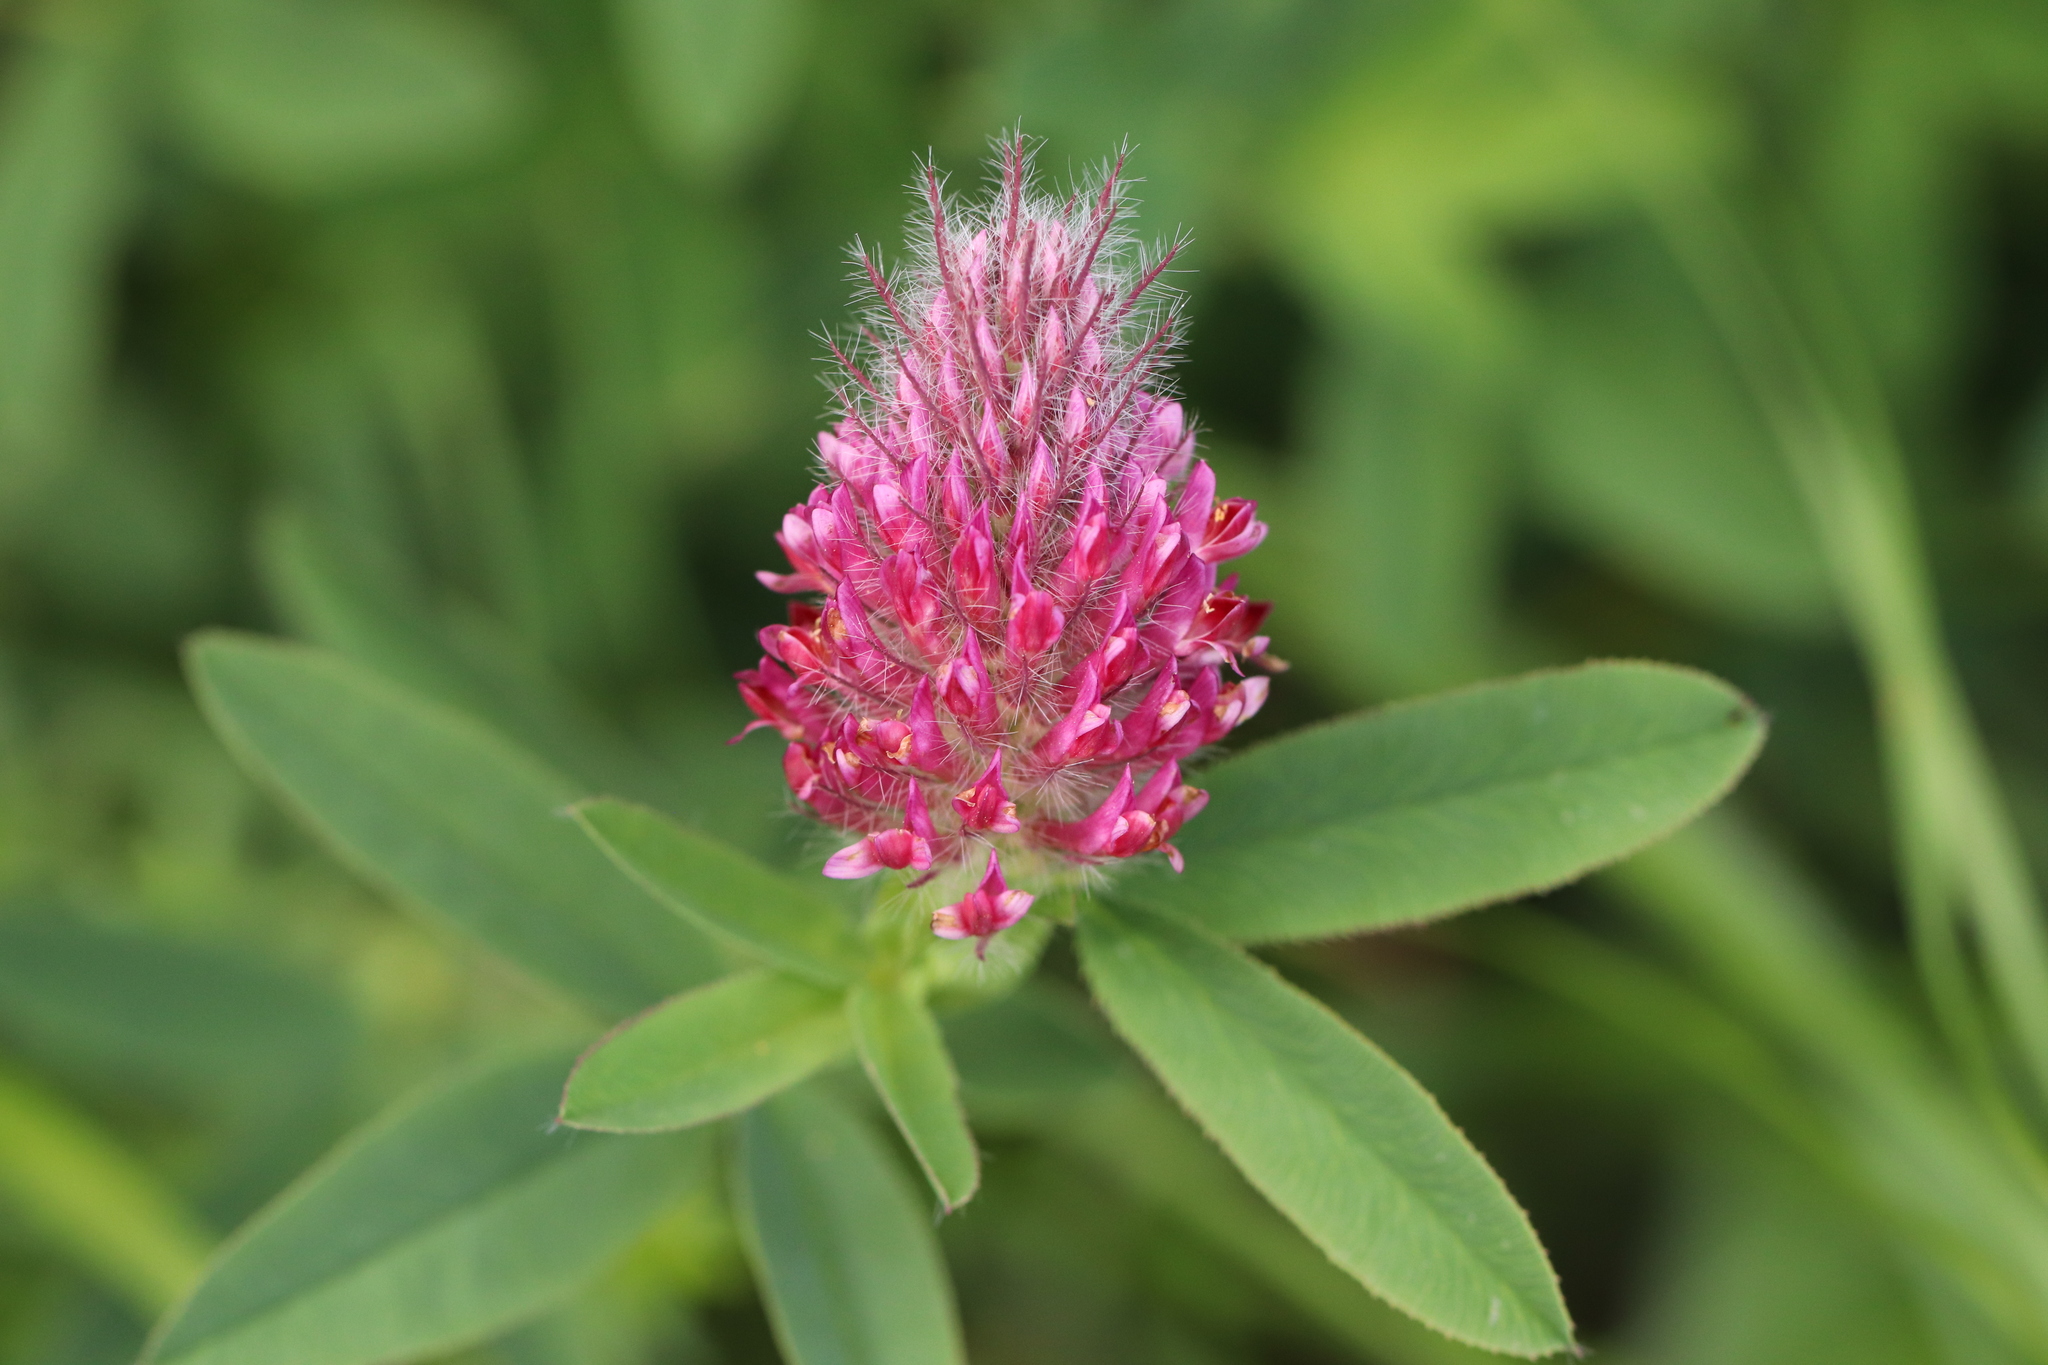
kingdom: Plantae
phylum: Tracheophyta
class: Magnoliopsida
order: Fabales
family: Fabaceae
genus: Trifolium
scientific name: Trifolium rubens
